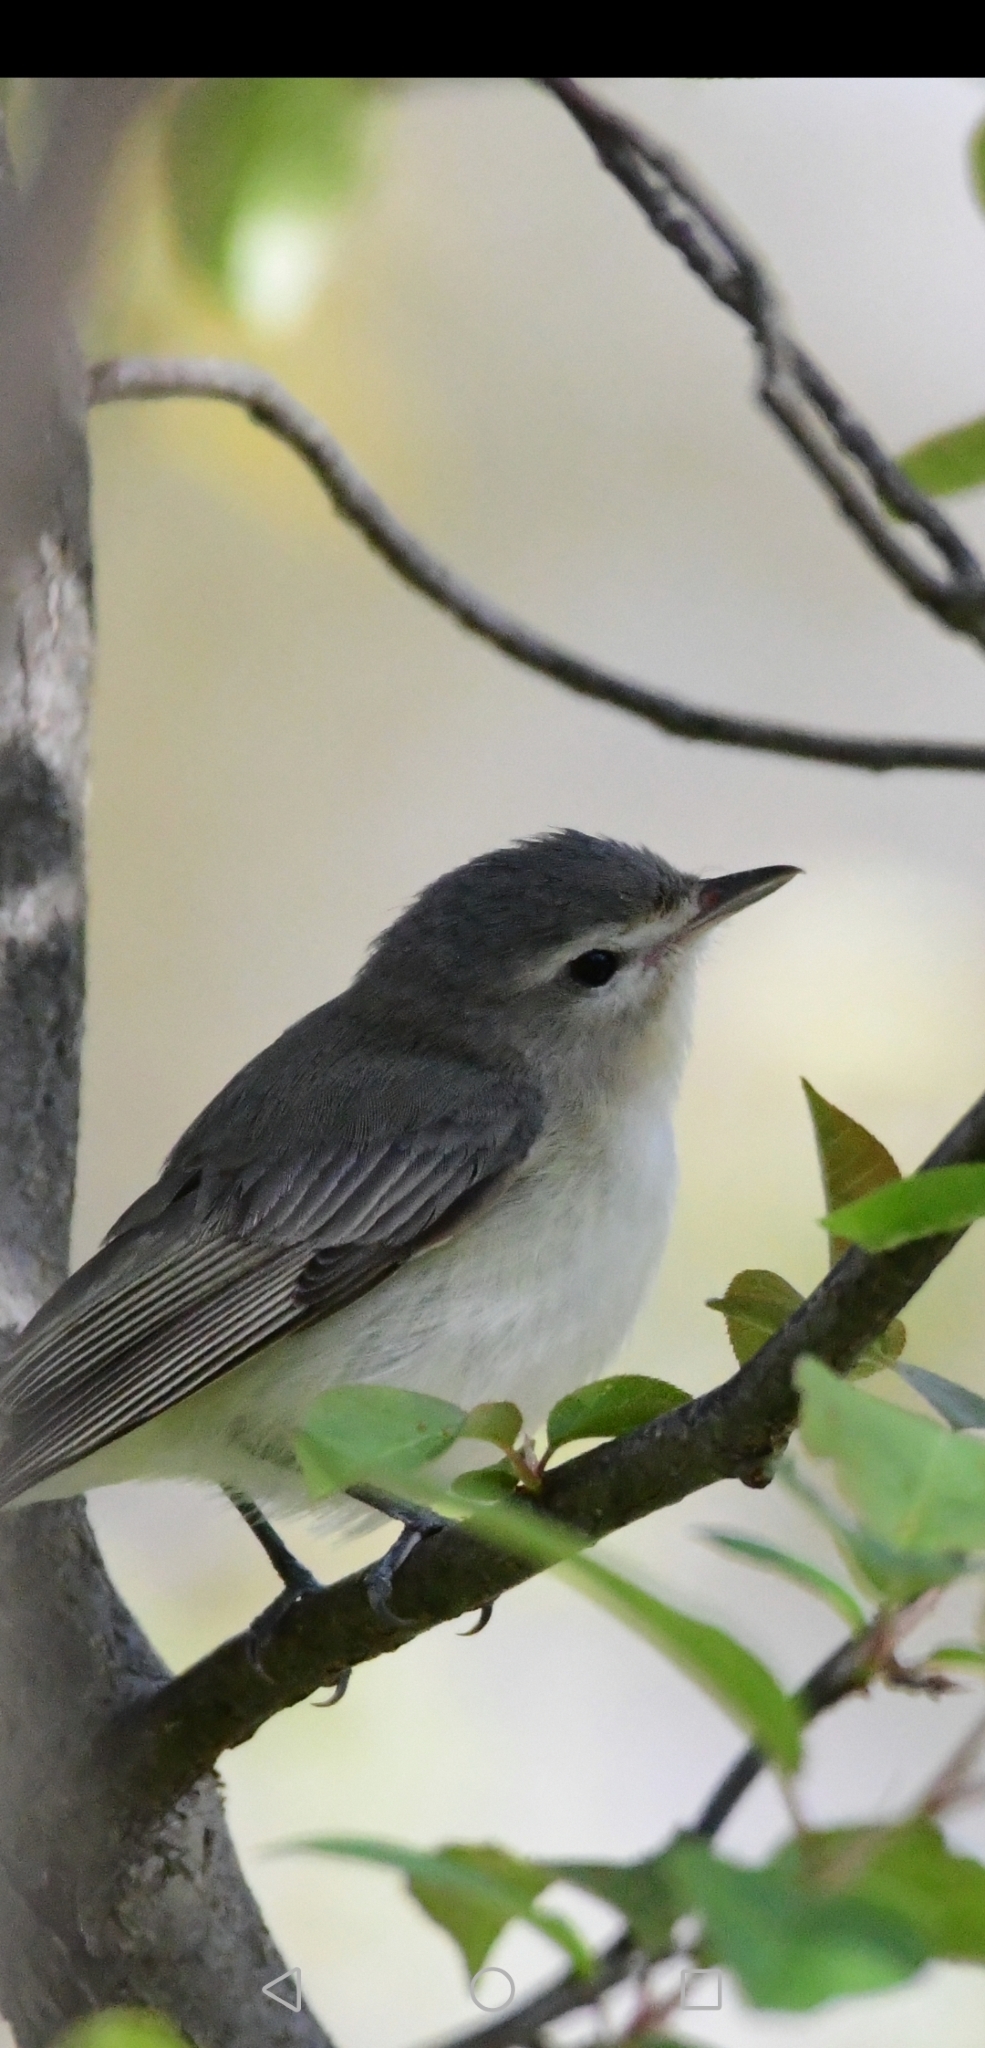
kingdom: Animalia
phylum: Chordata
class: Aves
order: Passeriformes
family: Vireonidae
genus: Vireo
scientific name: Vireo gilvus
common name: Warbling vireo
